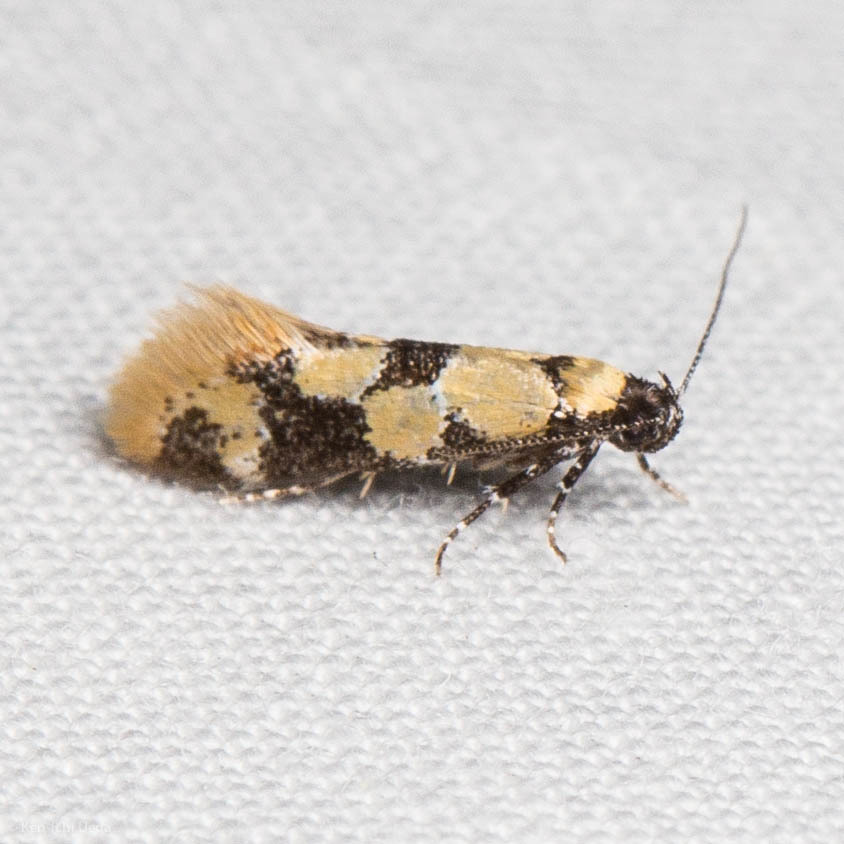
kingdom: Animalia
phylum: Arthropoda
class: Insecta
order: Lepidoptera
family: Oecophoridae
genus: Decantha
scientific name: Decantha stonda
